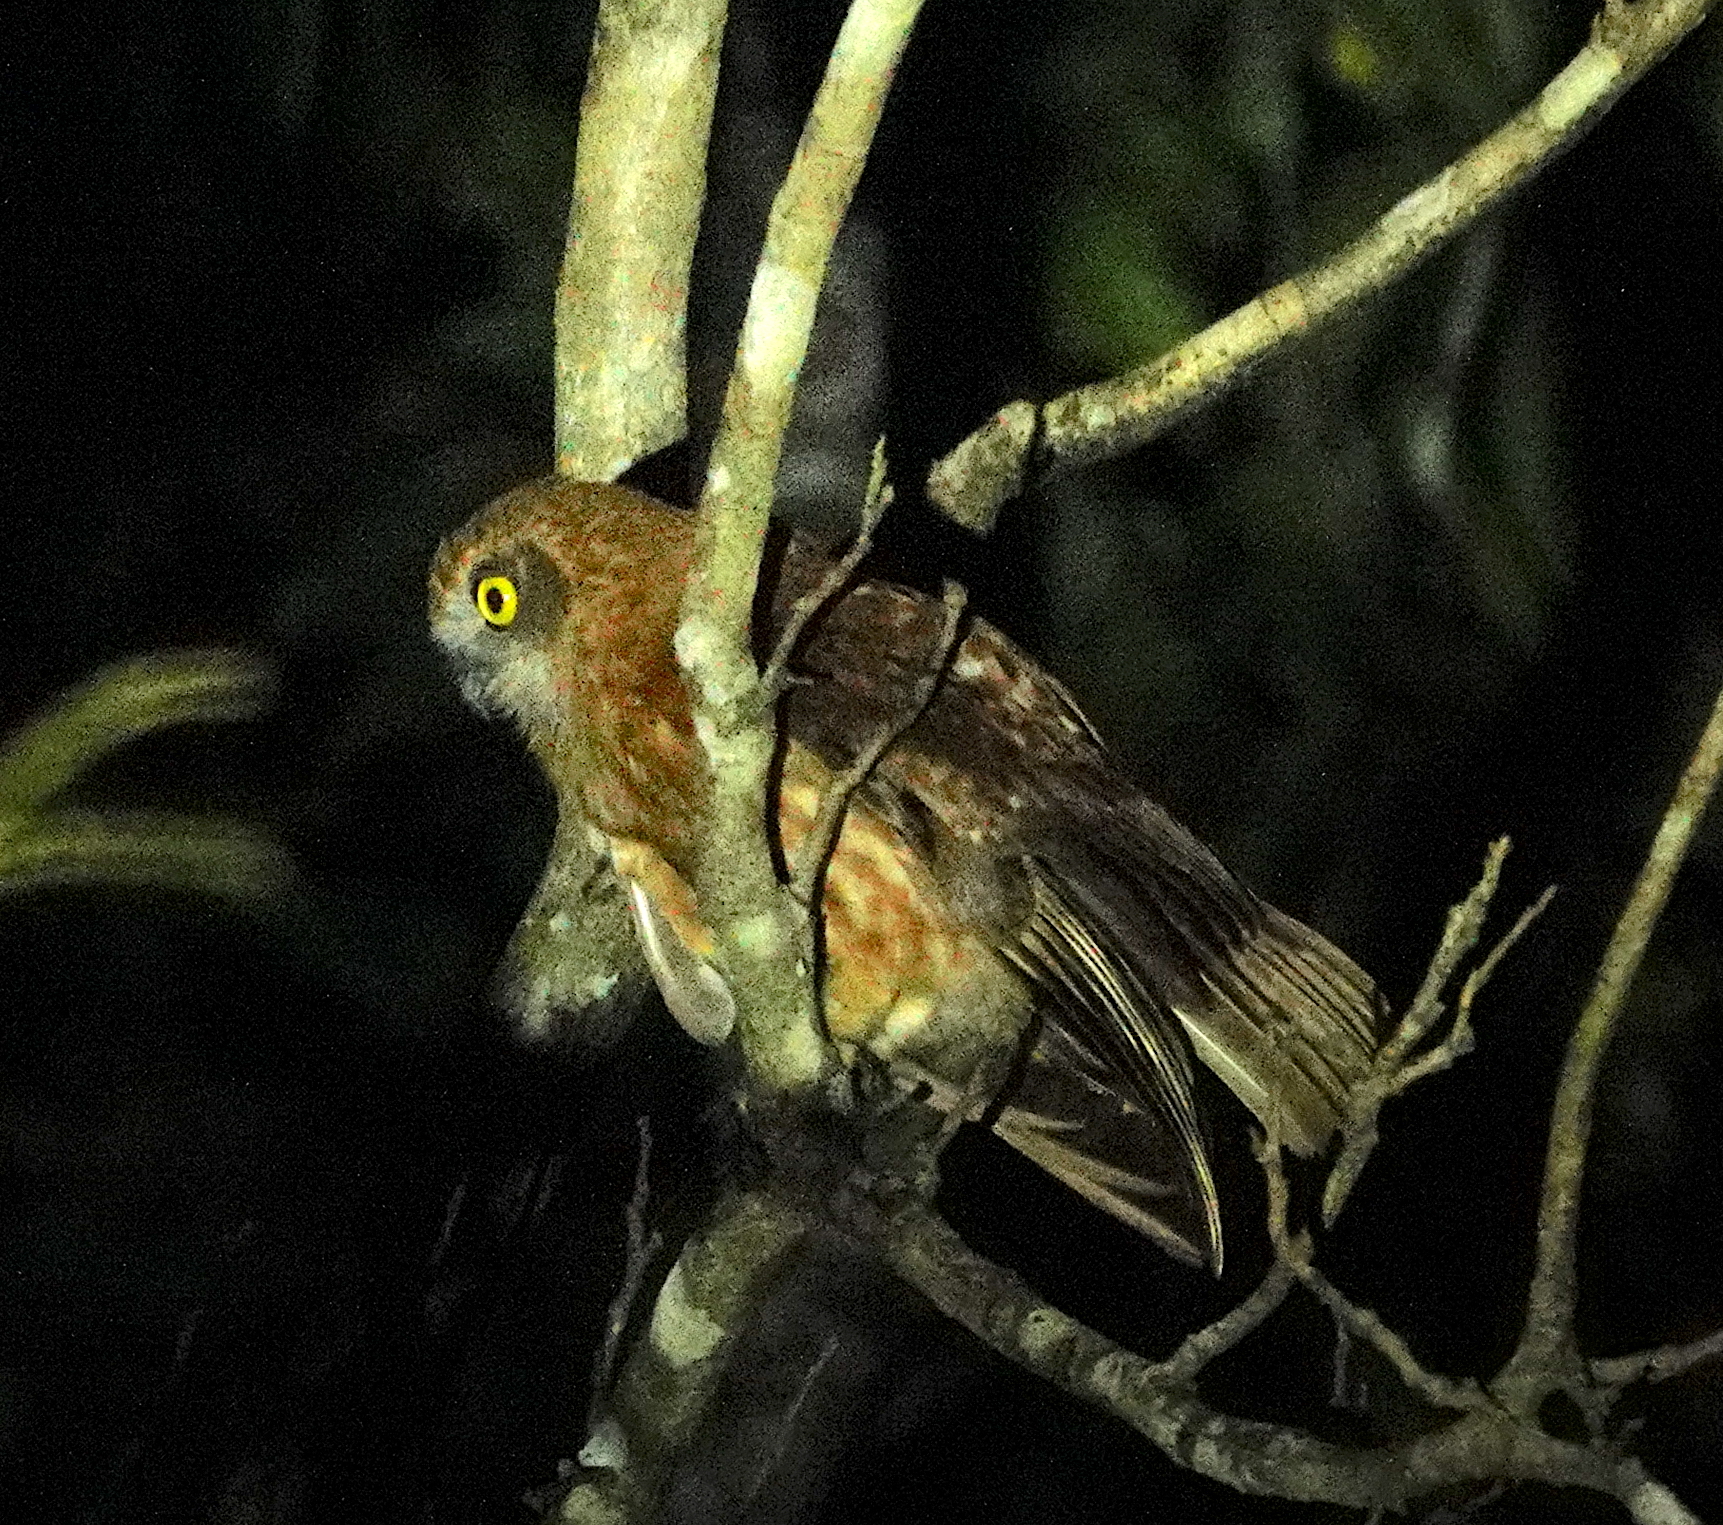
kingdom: Animalia
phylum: Chordata
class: Aves
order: Strigiformes
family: Strigidae
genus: Ninox
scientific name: Ninox boobook
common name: Southern boobook
